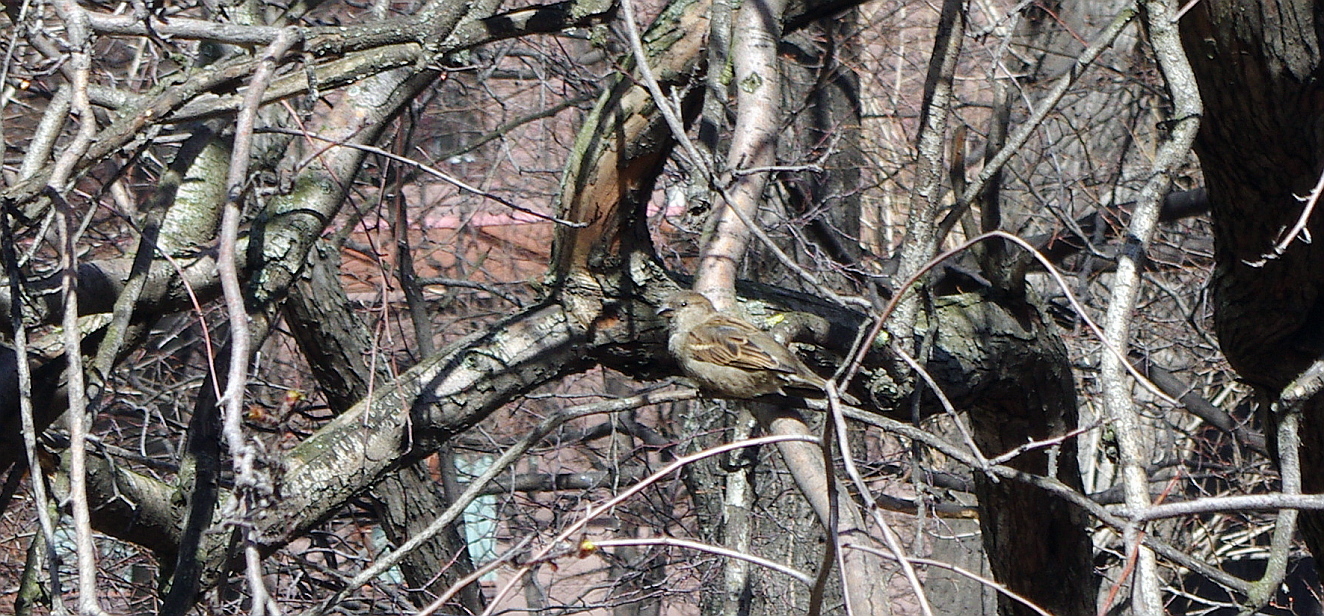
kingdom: Animalia
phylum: Chordata
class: Aves
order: Passeriformes
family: Passeridae
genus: Passer
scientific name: Passer domesticus
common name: House sparrow
